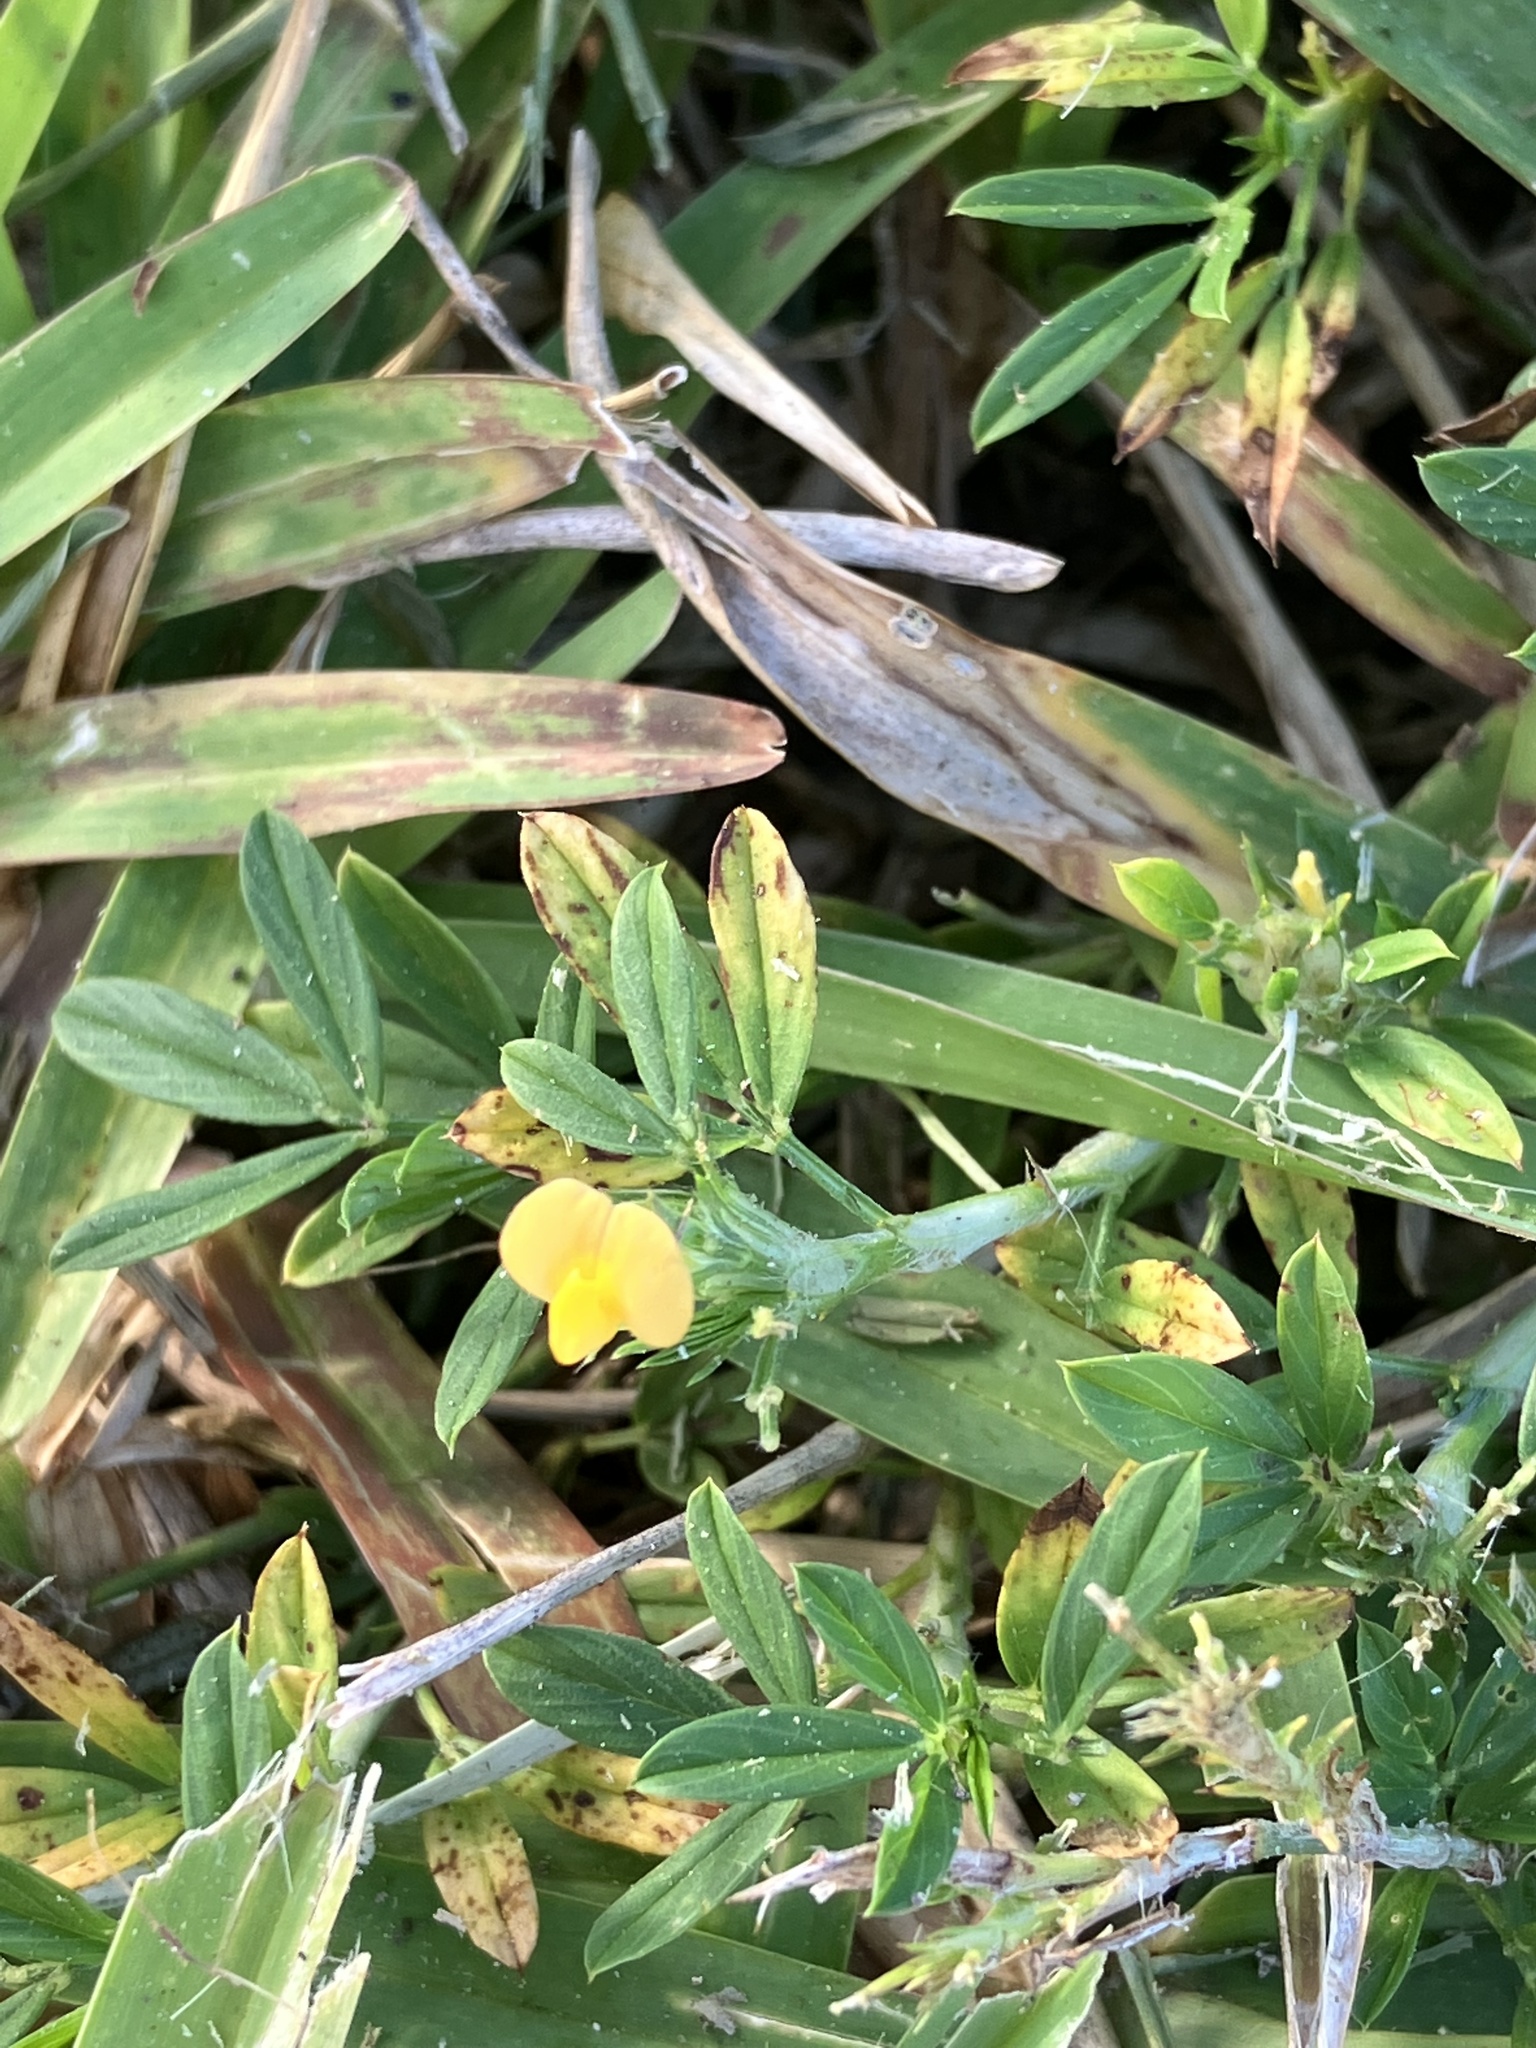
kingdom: Plantae
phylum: Tracheophyta
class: Magnoliopsida
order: Fabales
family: Fabaceae
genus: Stylosanthes
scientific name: Stylosanthes scabra
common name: Pencilflower
